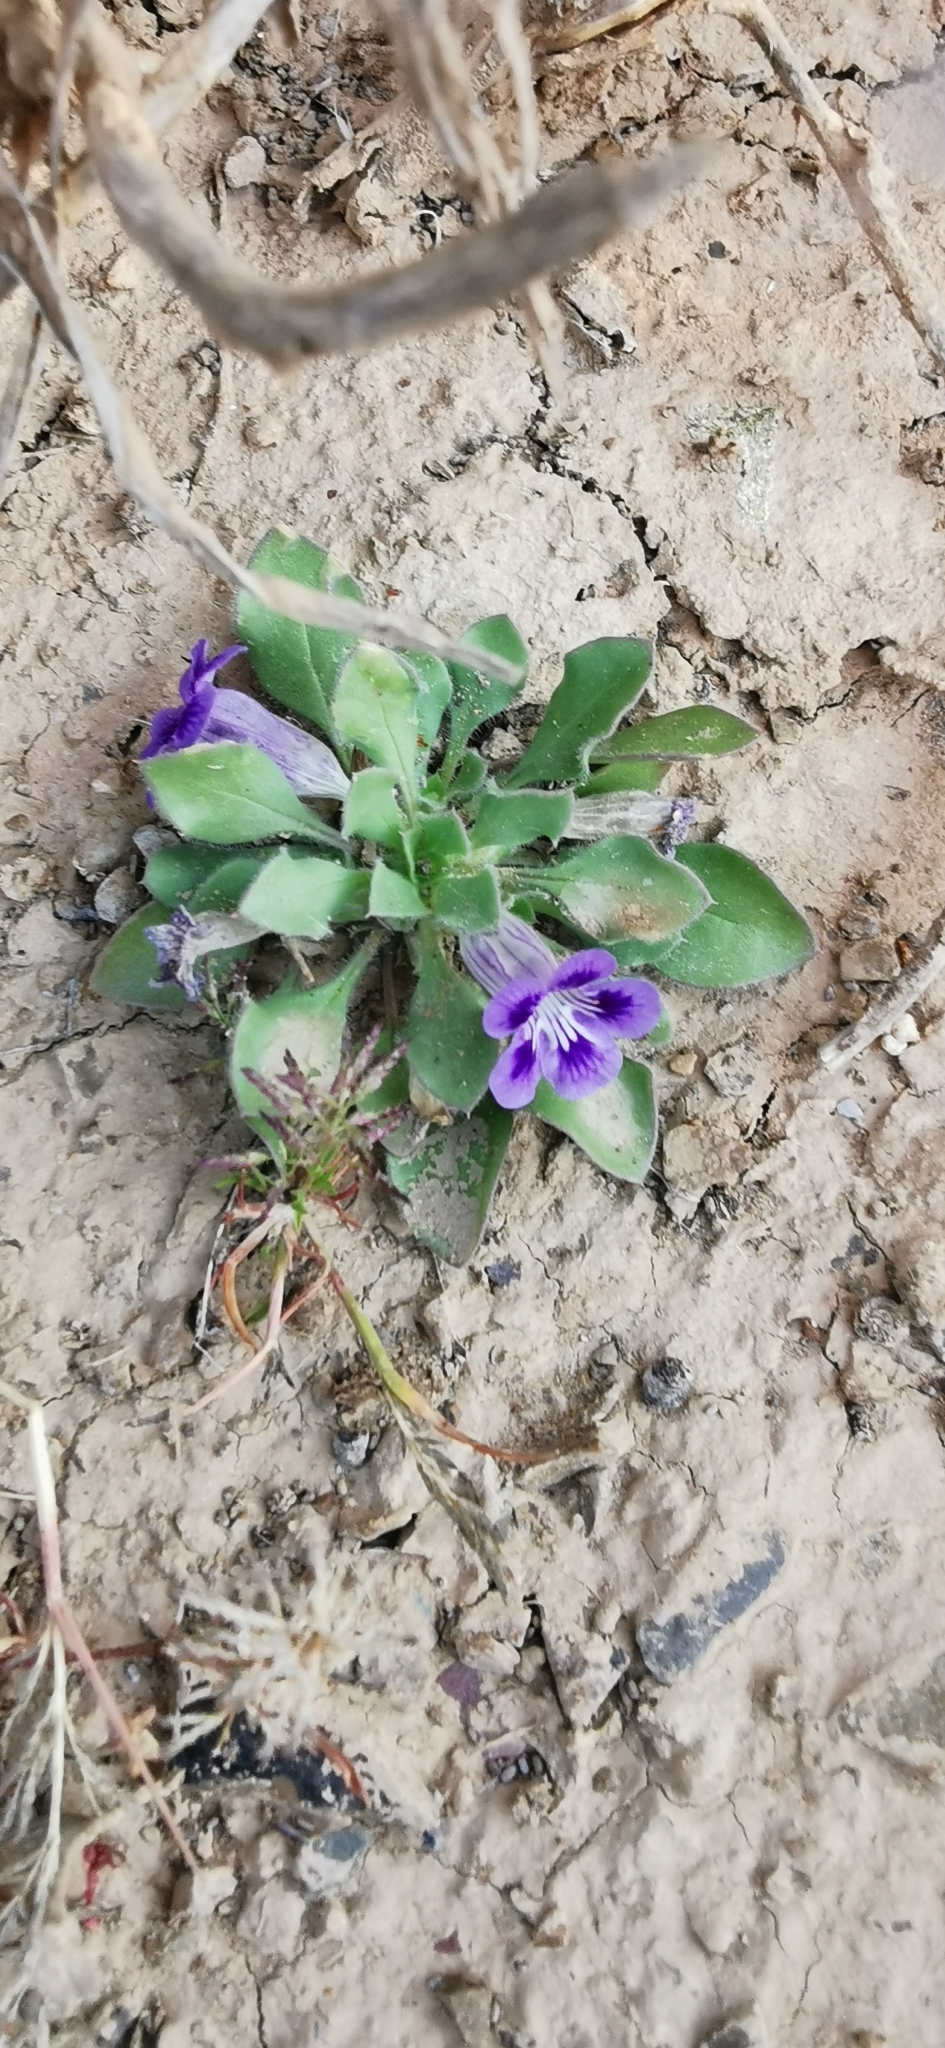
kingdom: Plantae
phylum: Tracheophyta
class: Magnoliopsida
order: Lamiales
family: Scrophulariaceae
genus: Aptosimum
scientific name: Aptosimum indivisum
